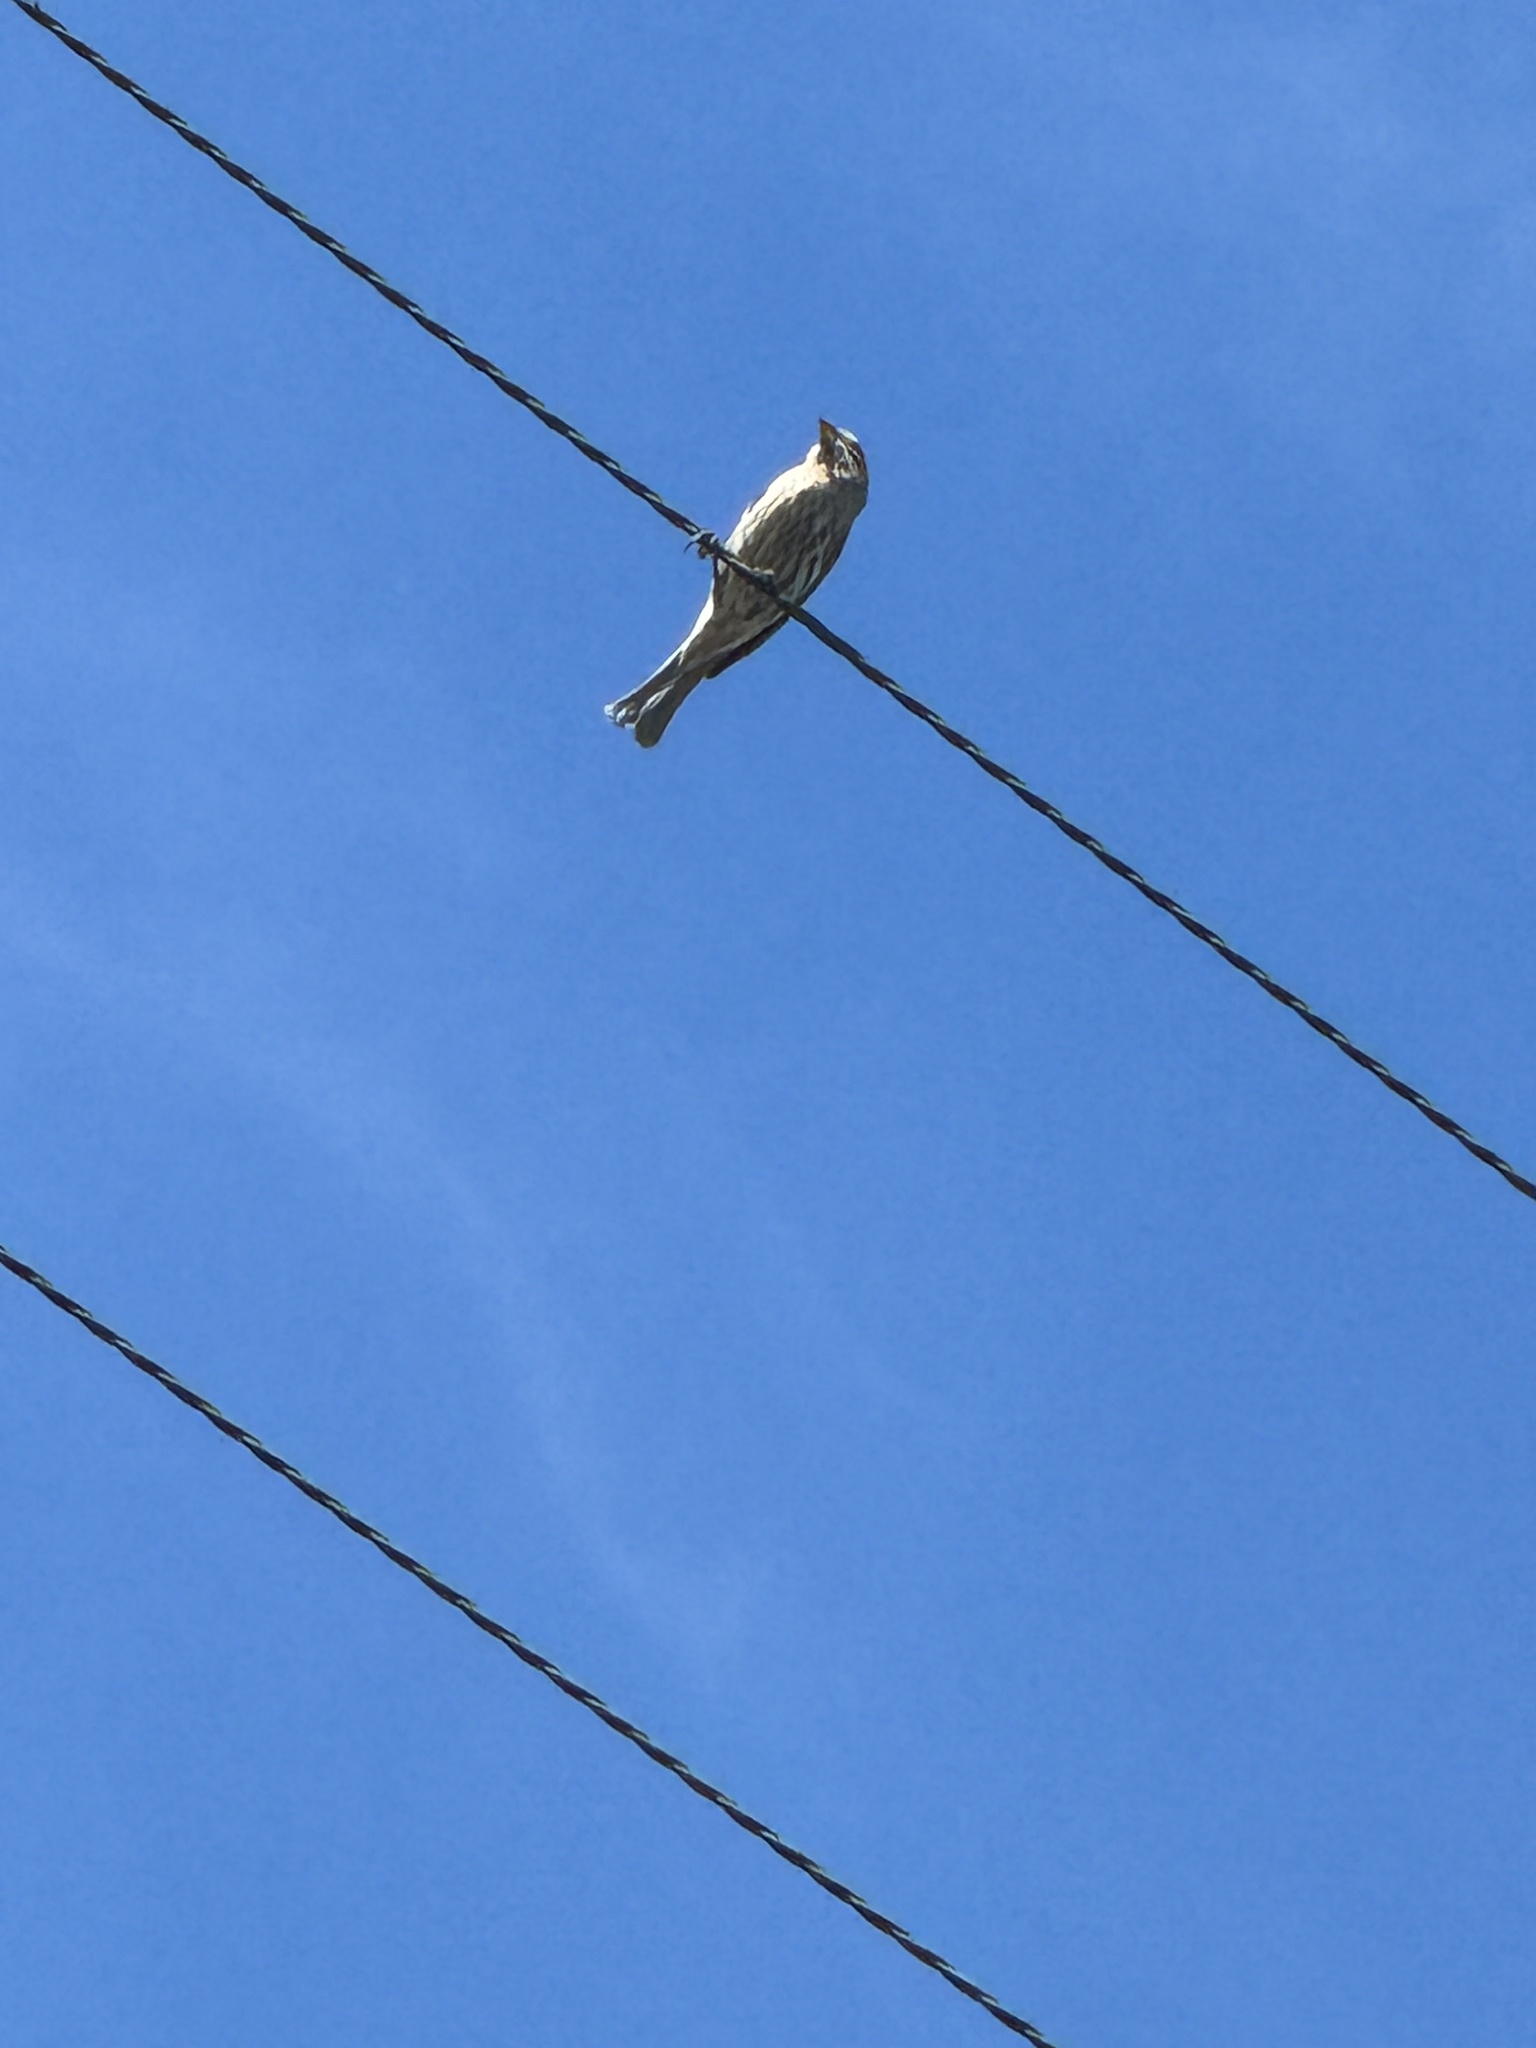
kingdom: Animalia
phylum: Chordata
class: Aves
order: Passeriformes
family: Fringillidae
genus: Haemorhous
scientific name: Haemorhous mexicanus
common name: House finch
